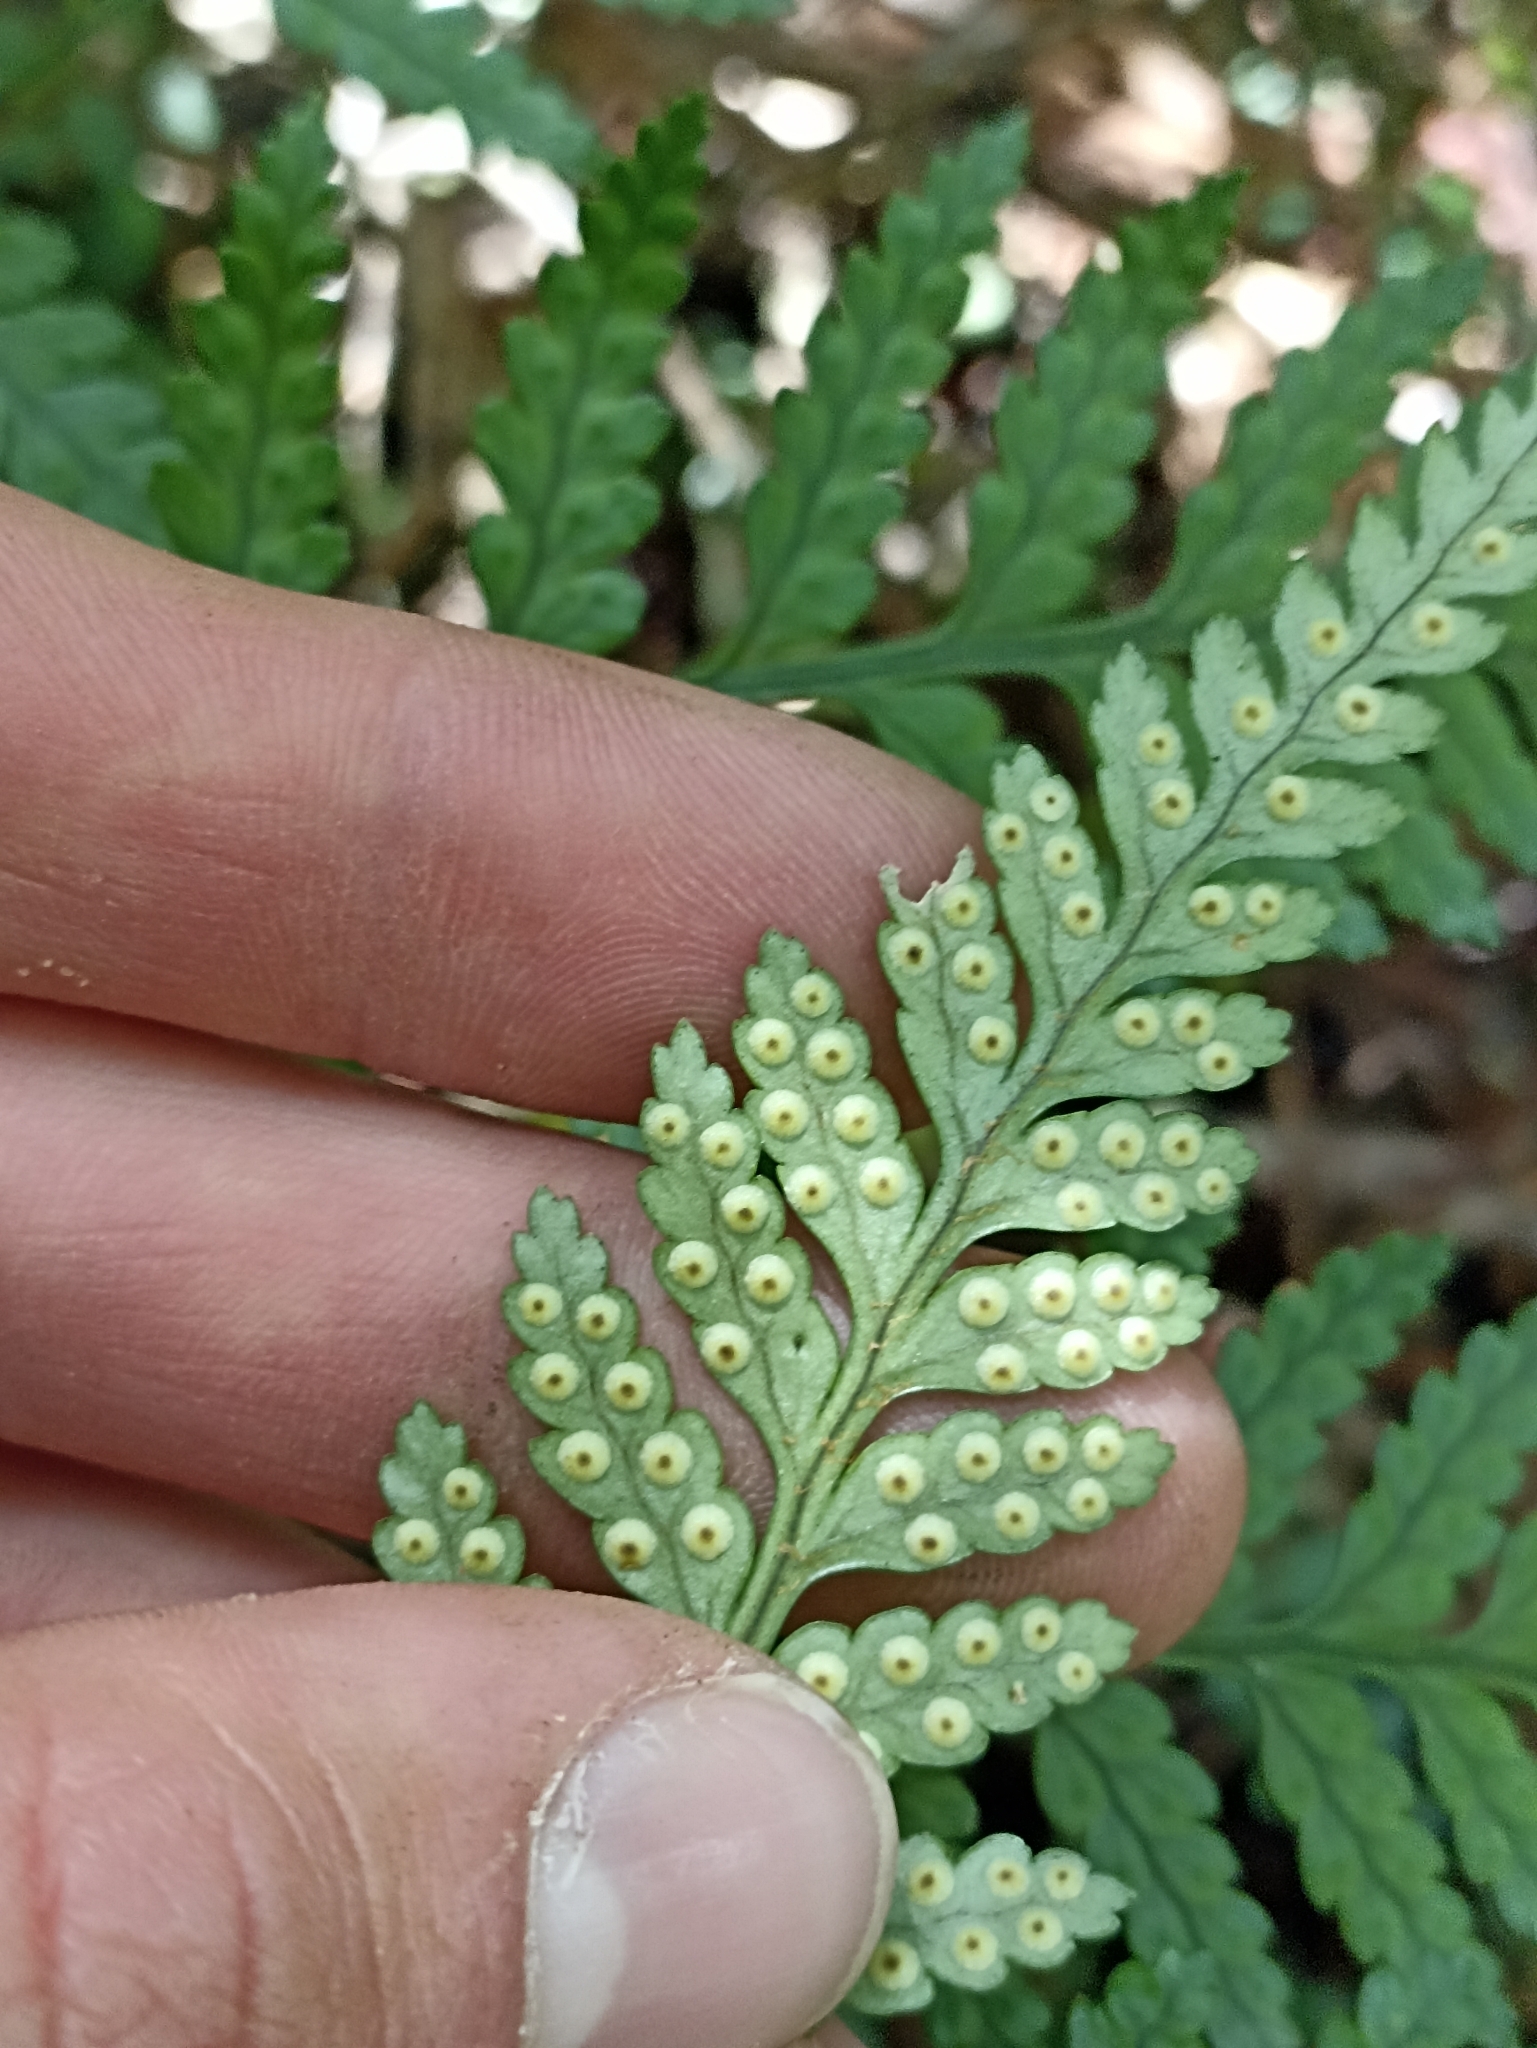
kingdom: Plantae
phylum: Tracheophyta
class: Polypodiopsida
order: Polypodiales
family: Dryopteridaceae
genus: Rumohra
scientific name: Rumohra adiantiformis
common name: Leather fern
